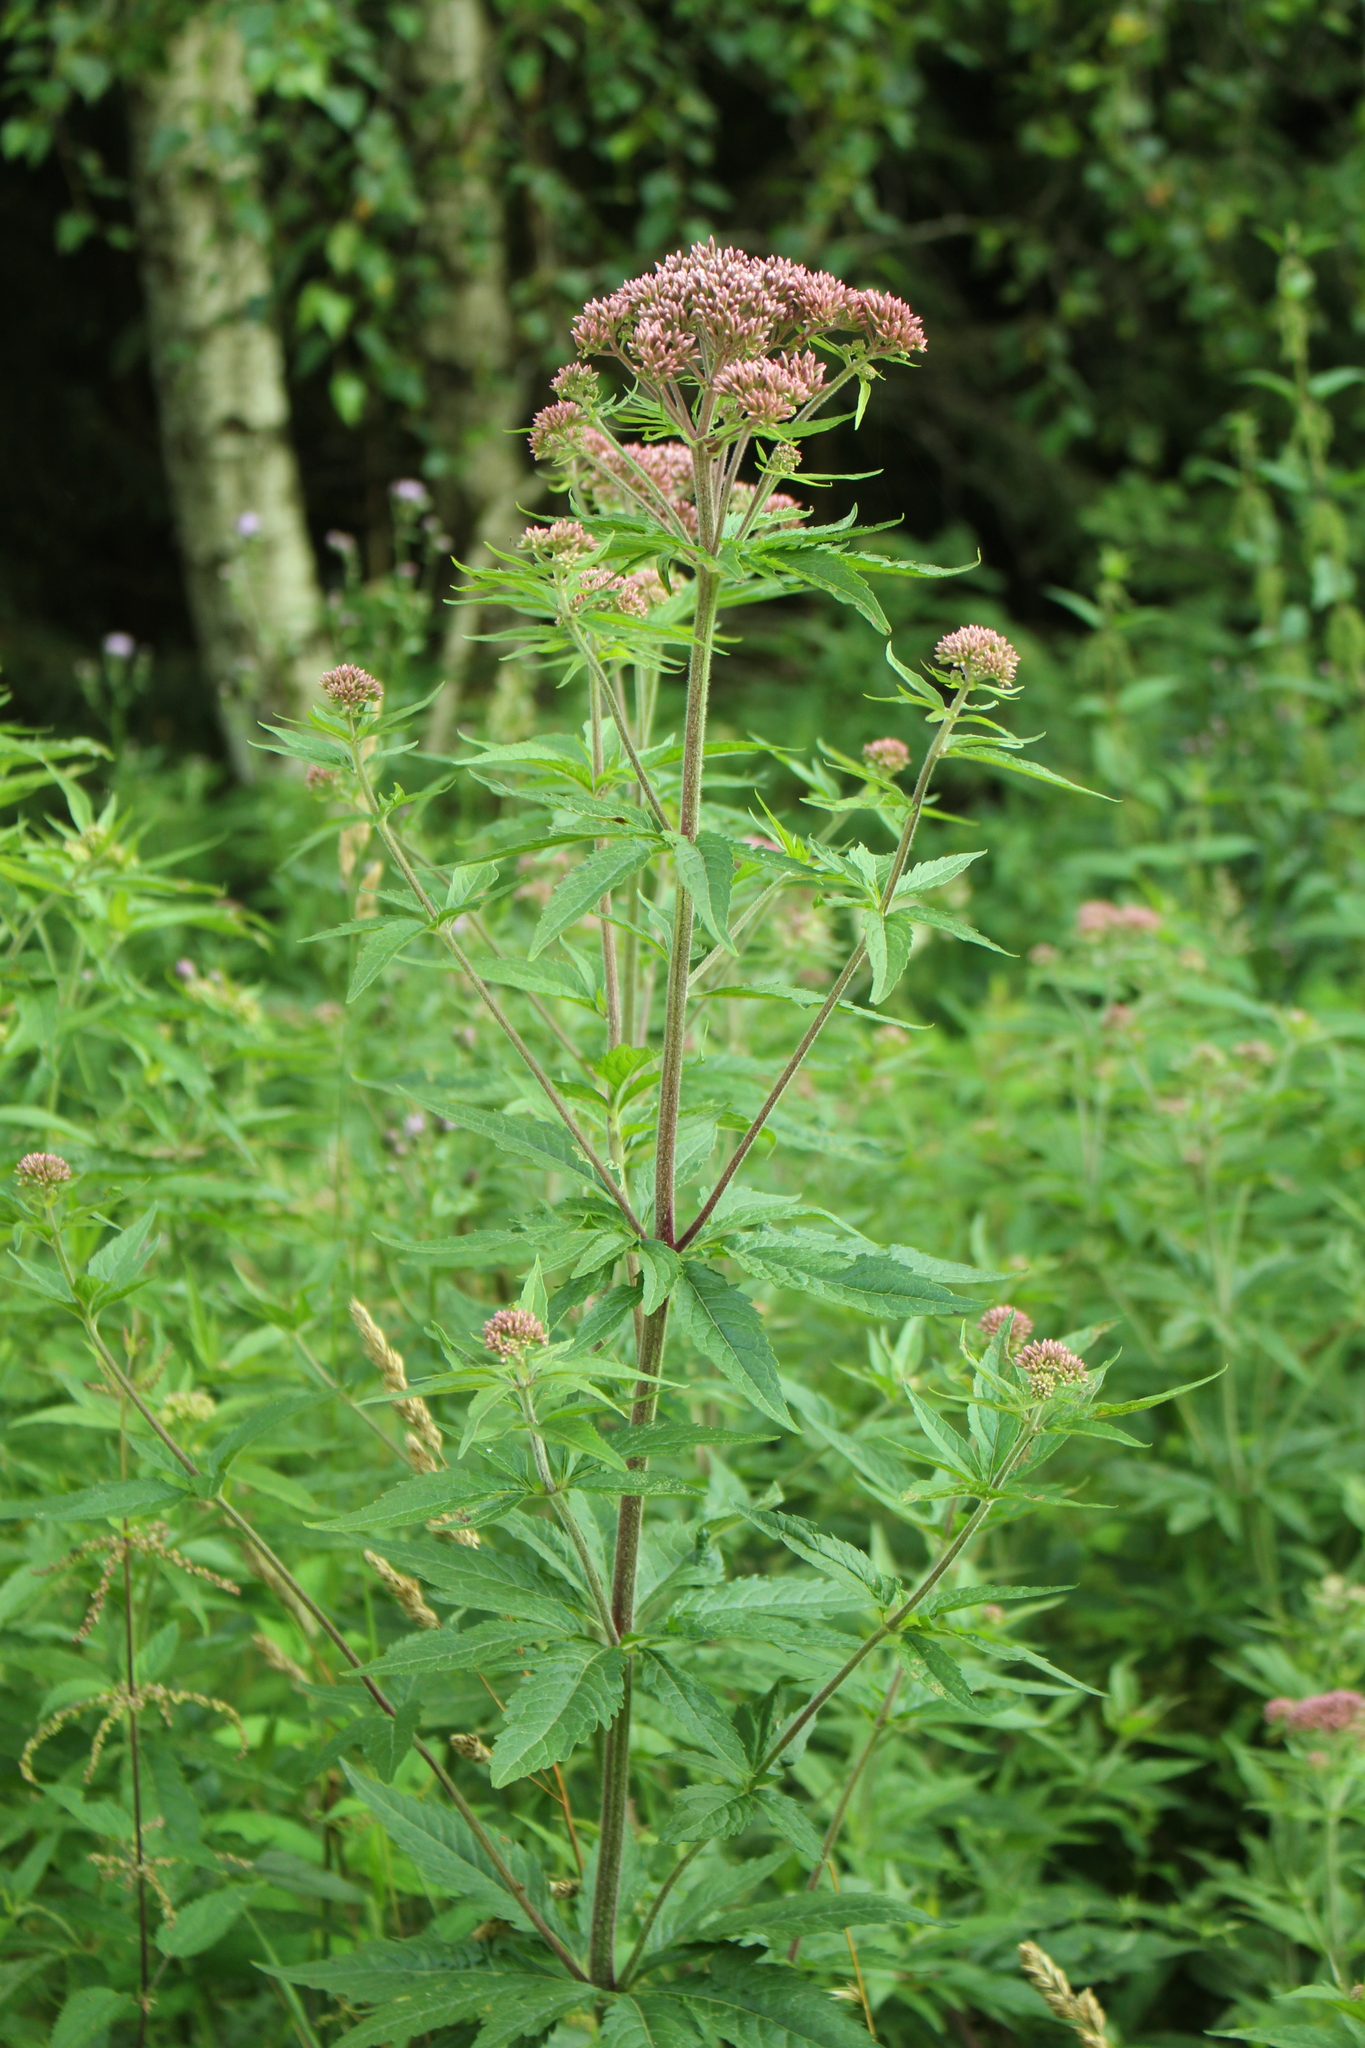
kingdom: Plantae
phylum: Tracheophyta
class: Magnoliopsida
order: Asterales
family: Asteraceae
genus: Eupatorium
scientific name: Eupatorium cannabinum
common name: Hemp-agrimony
